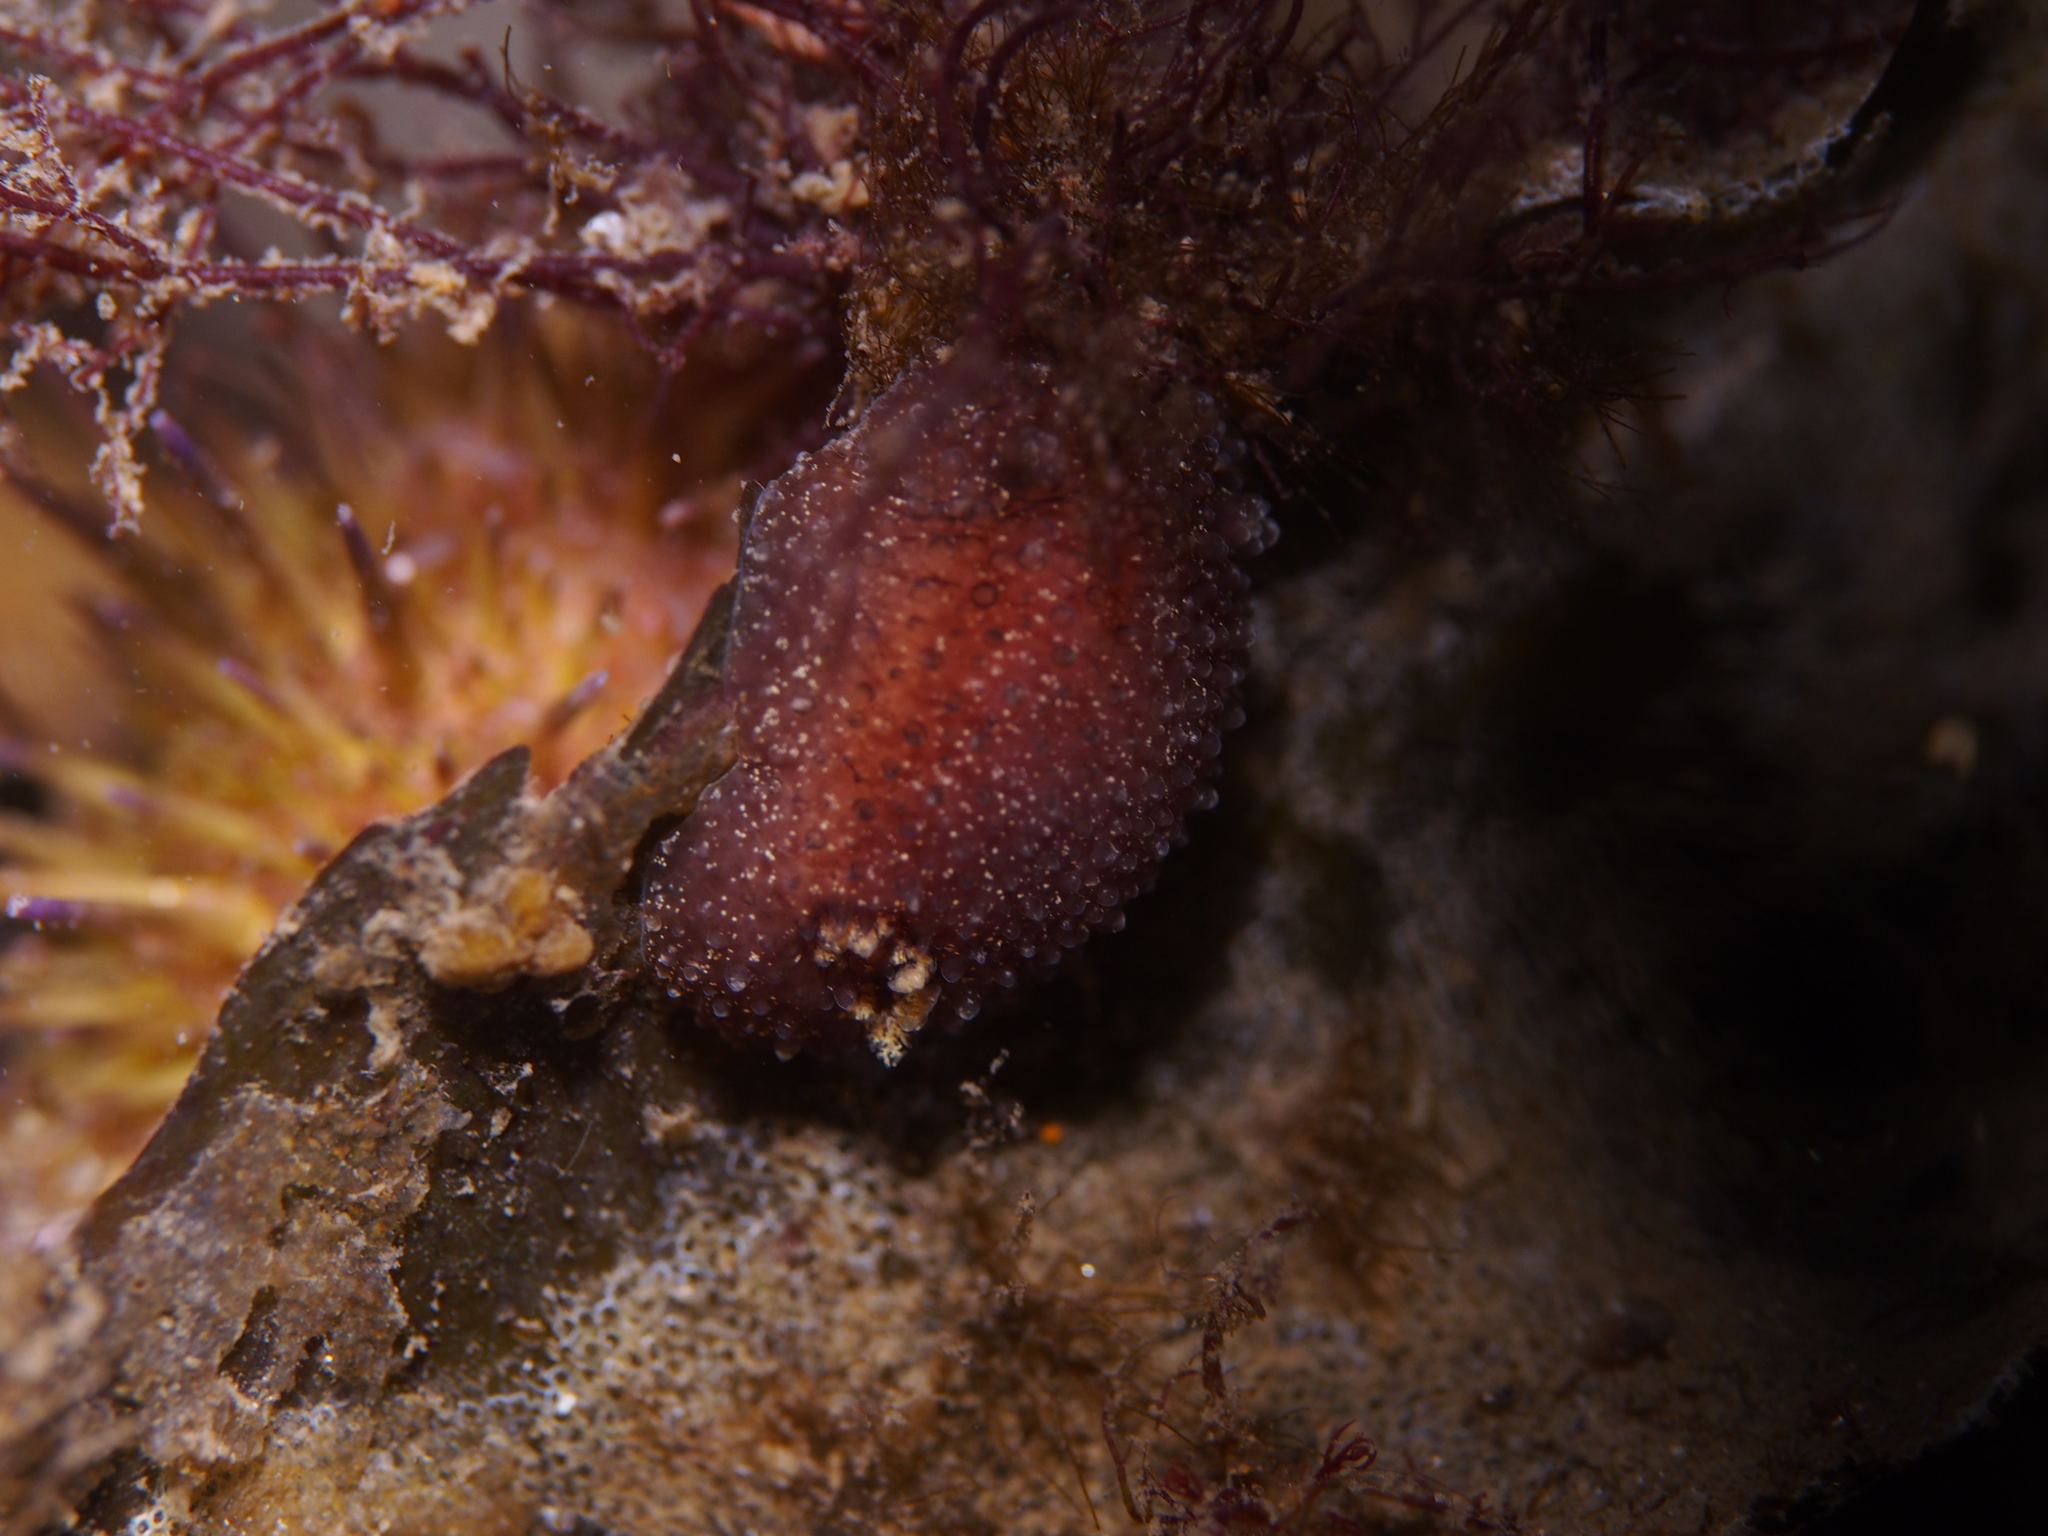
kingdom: Animalia
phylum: Mollusca
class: Gastropoda
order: Nudibranchia
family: Onchidorididae
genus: Acanthodoris
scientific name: Acanthodoris pilosa
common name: Hairy spiny doris
